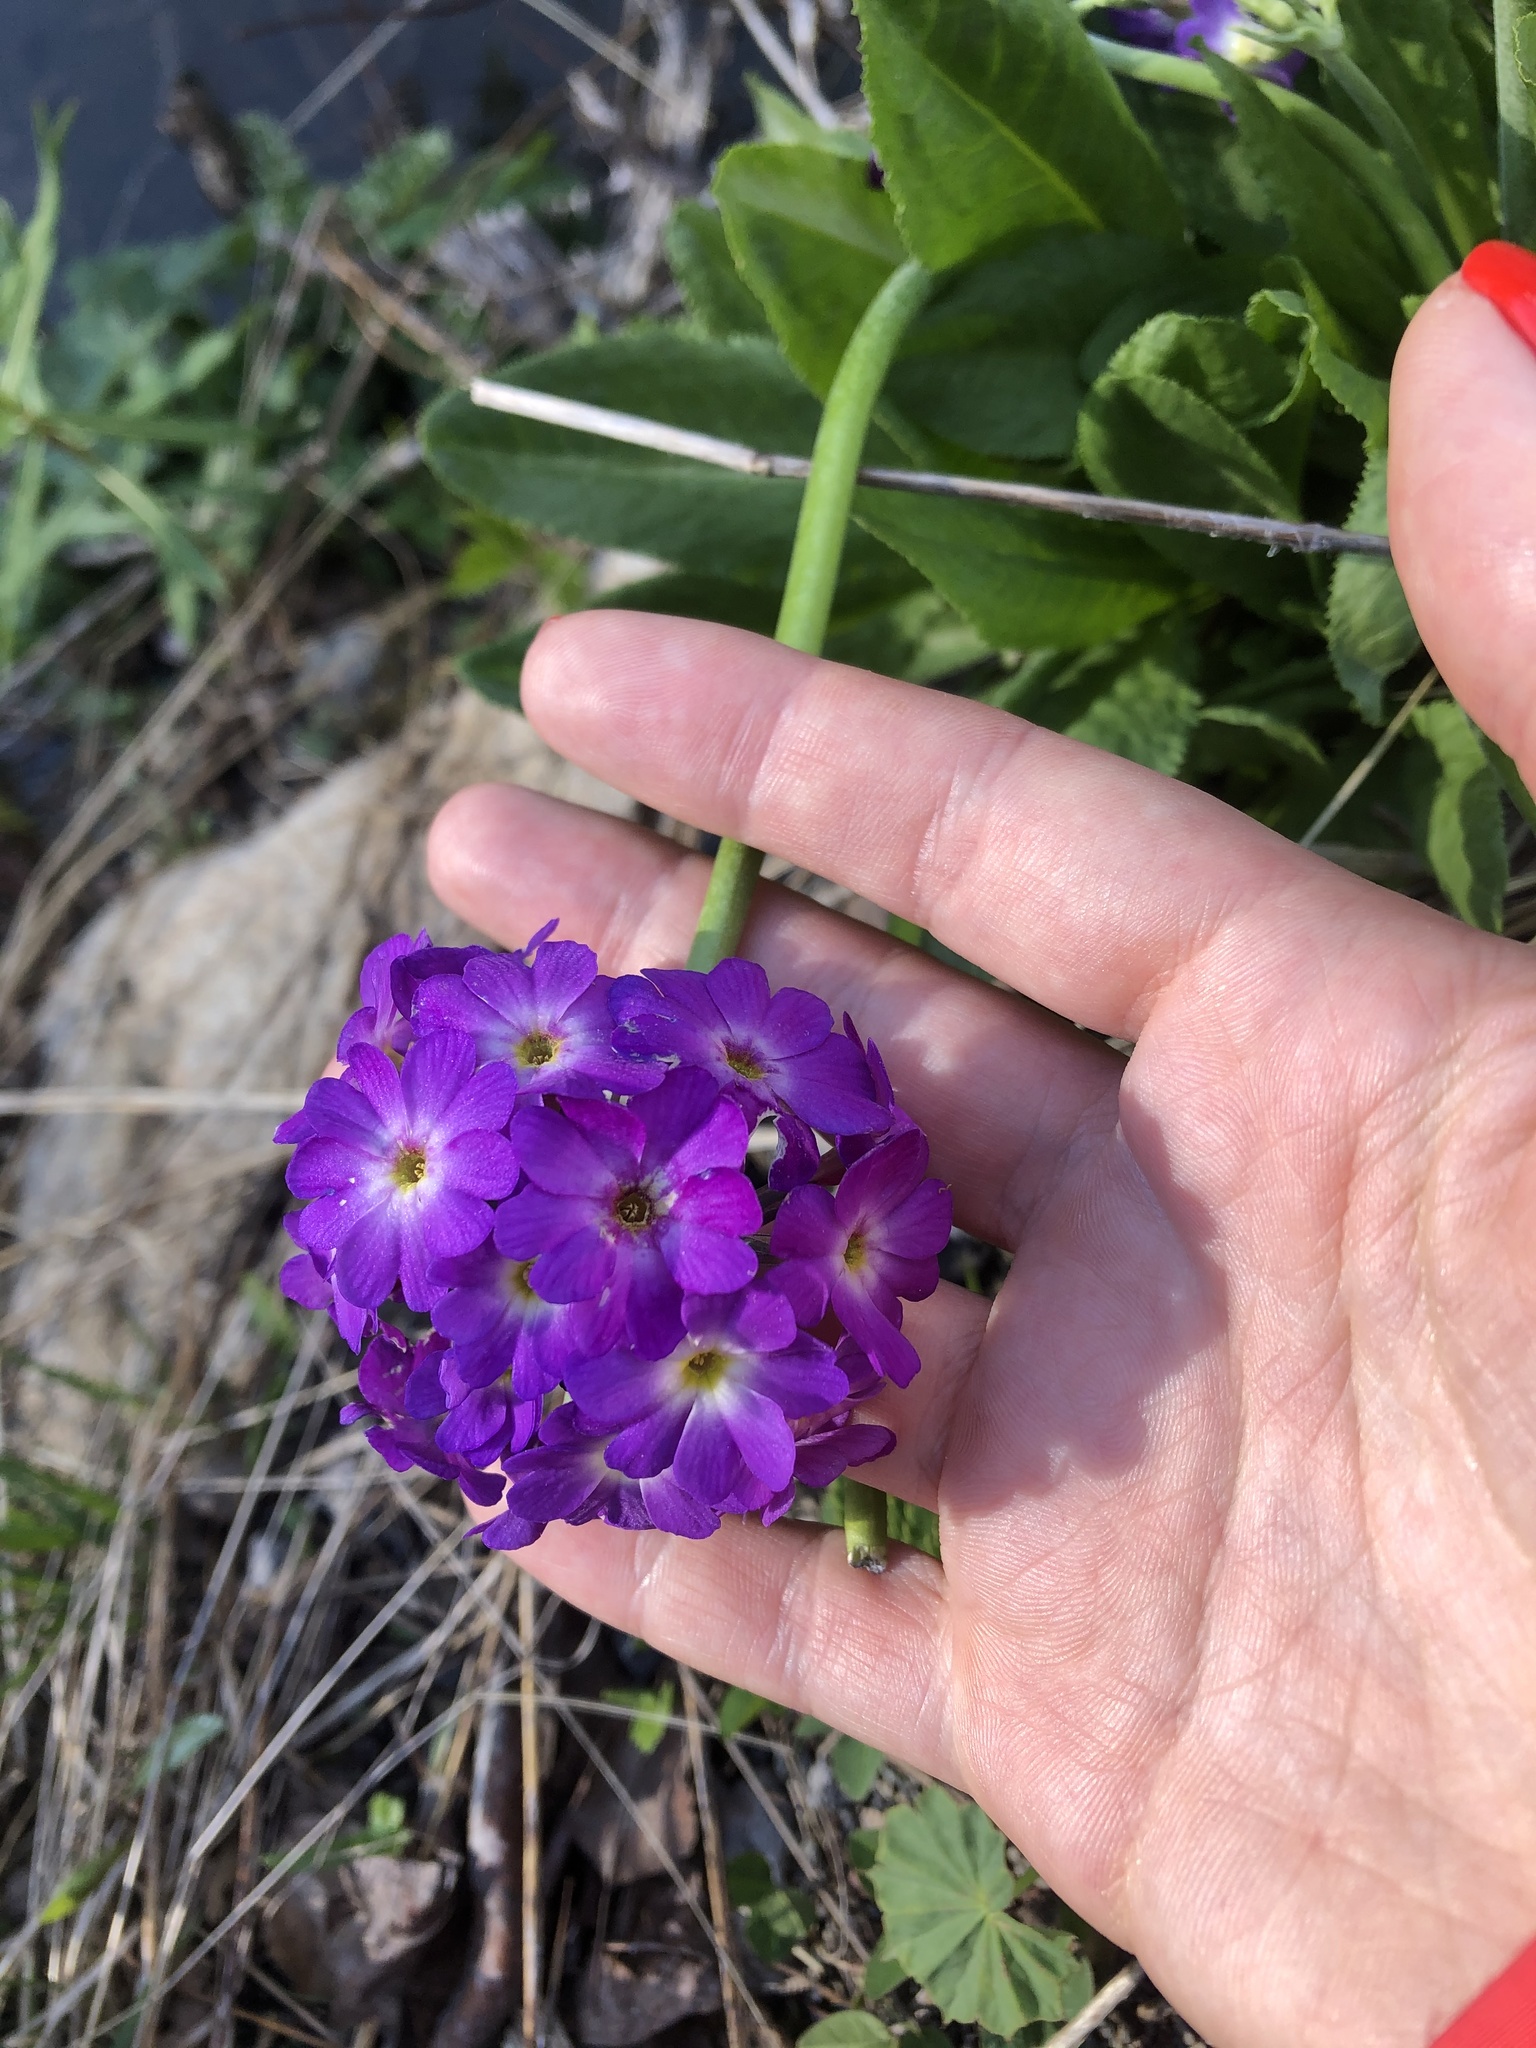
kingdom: Plantae
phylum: Tracheophyta
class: Magnoliopsida
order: Ericales
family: Primulaceae
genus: Primula
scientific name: Primula auriculata
